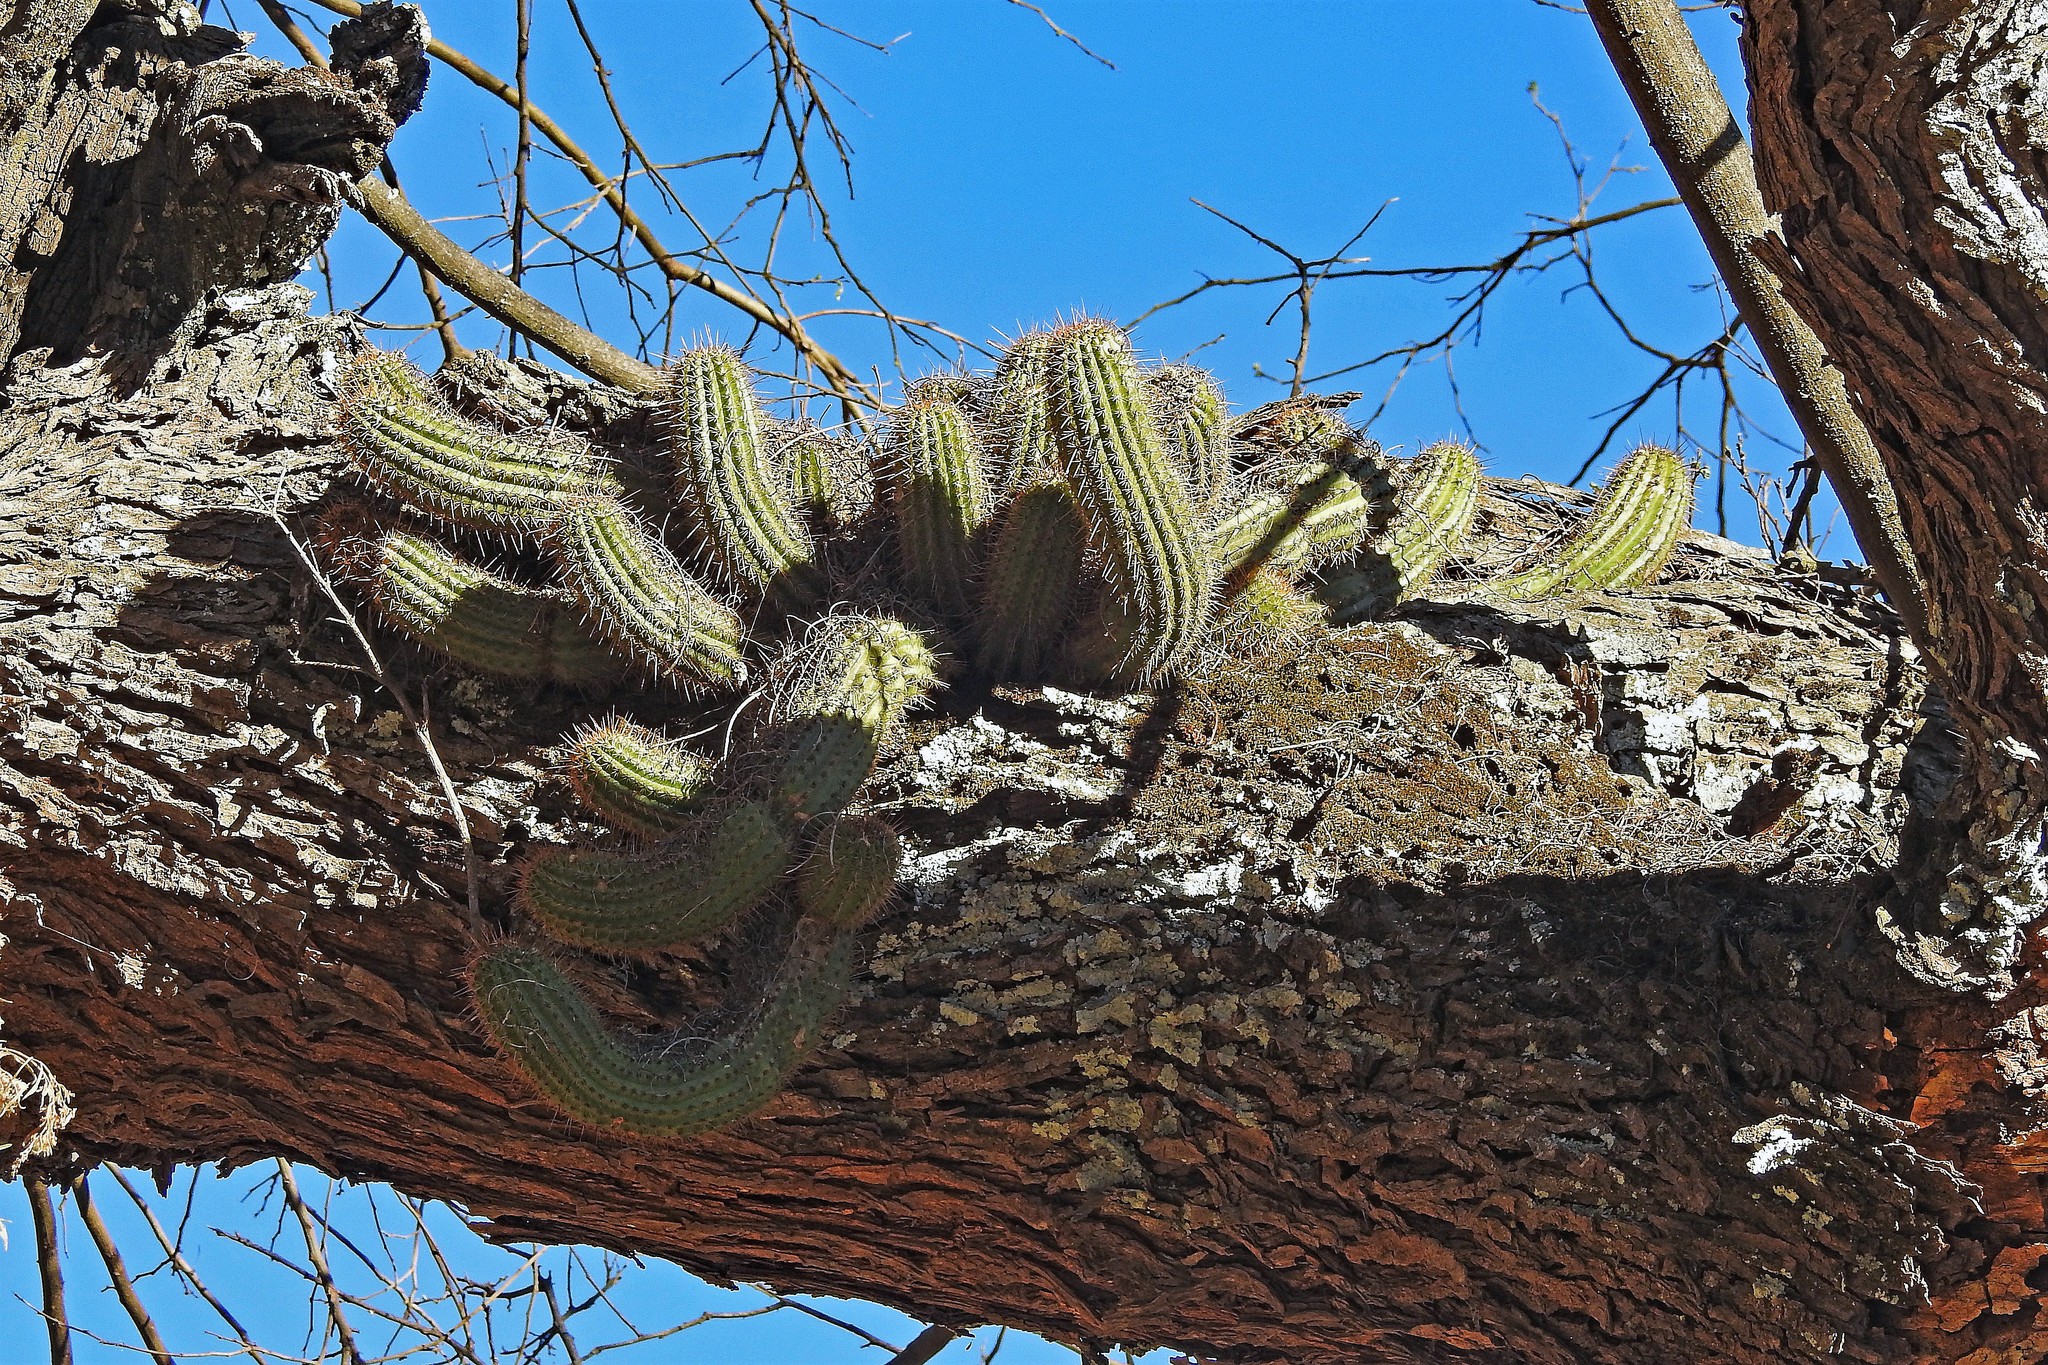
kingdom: Plantae
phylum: Tracheophyta
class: Magnoliopsida
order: Caryophyllales
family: Cactaceae
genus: Soehrensia
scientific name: Soehrensia huascha
